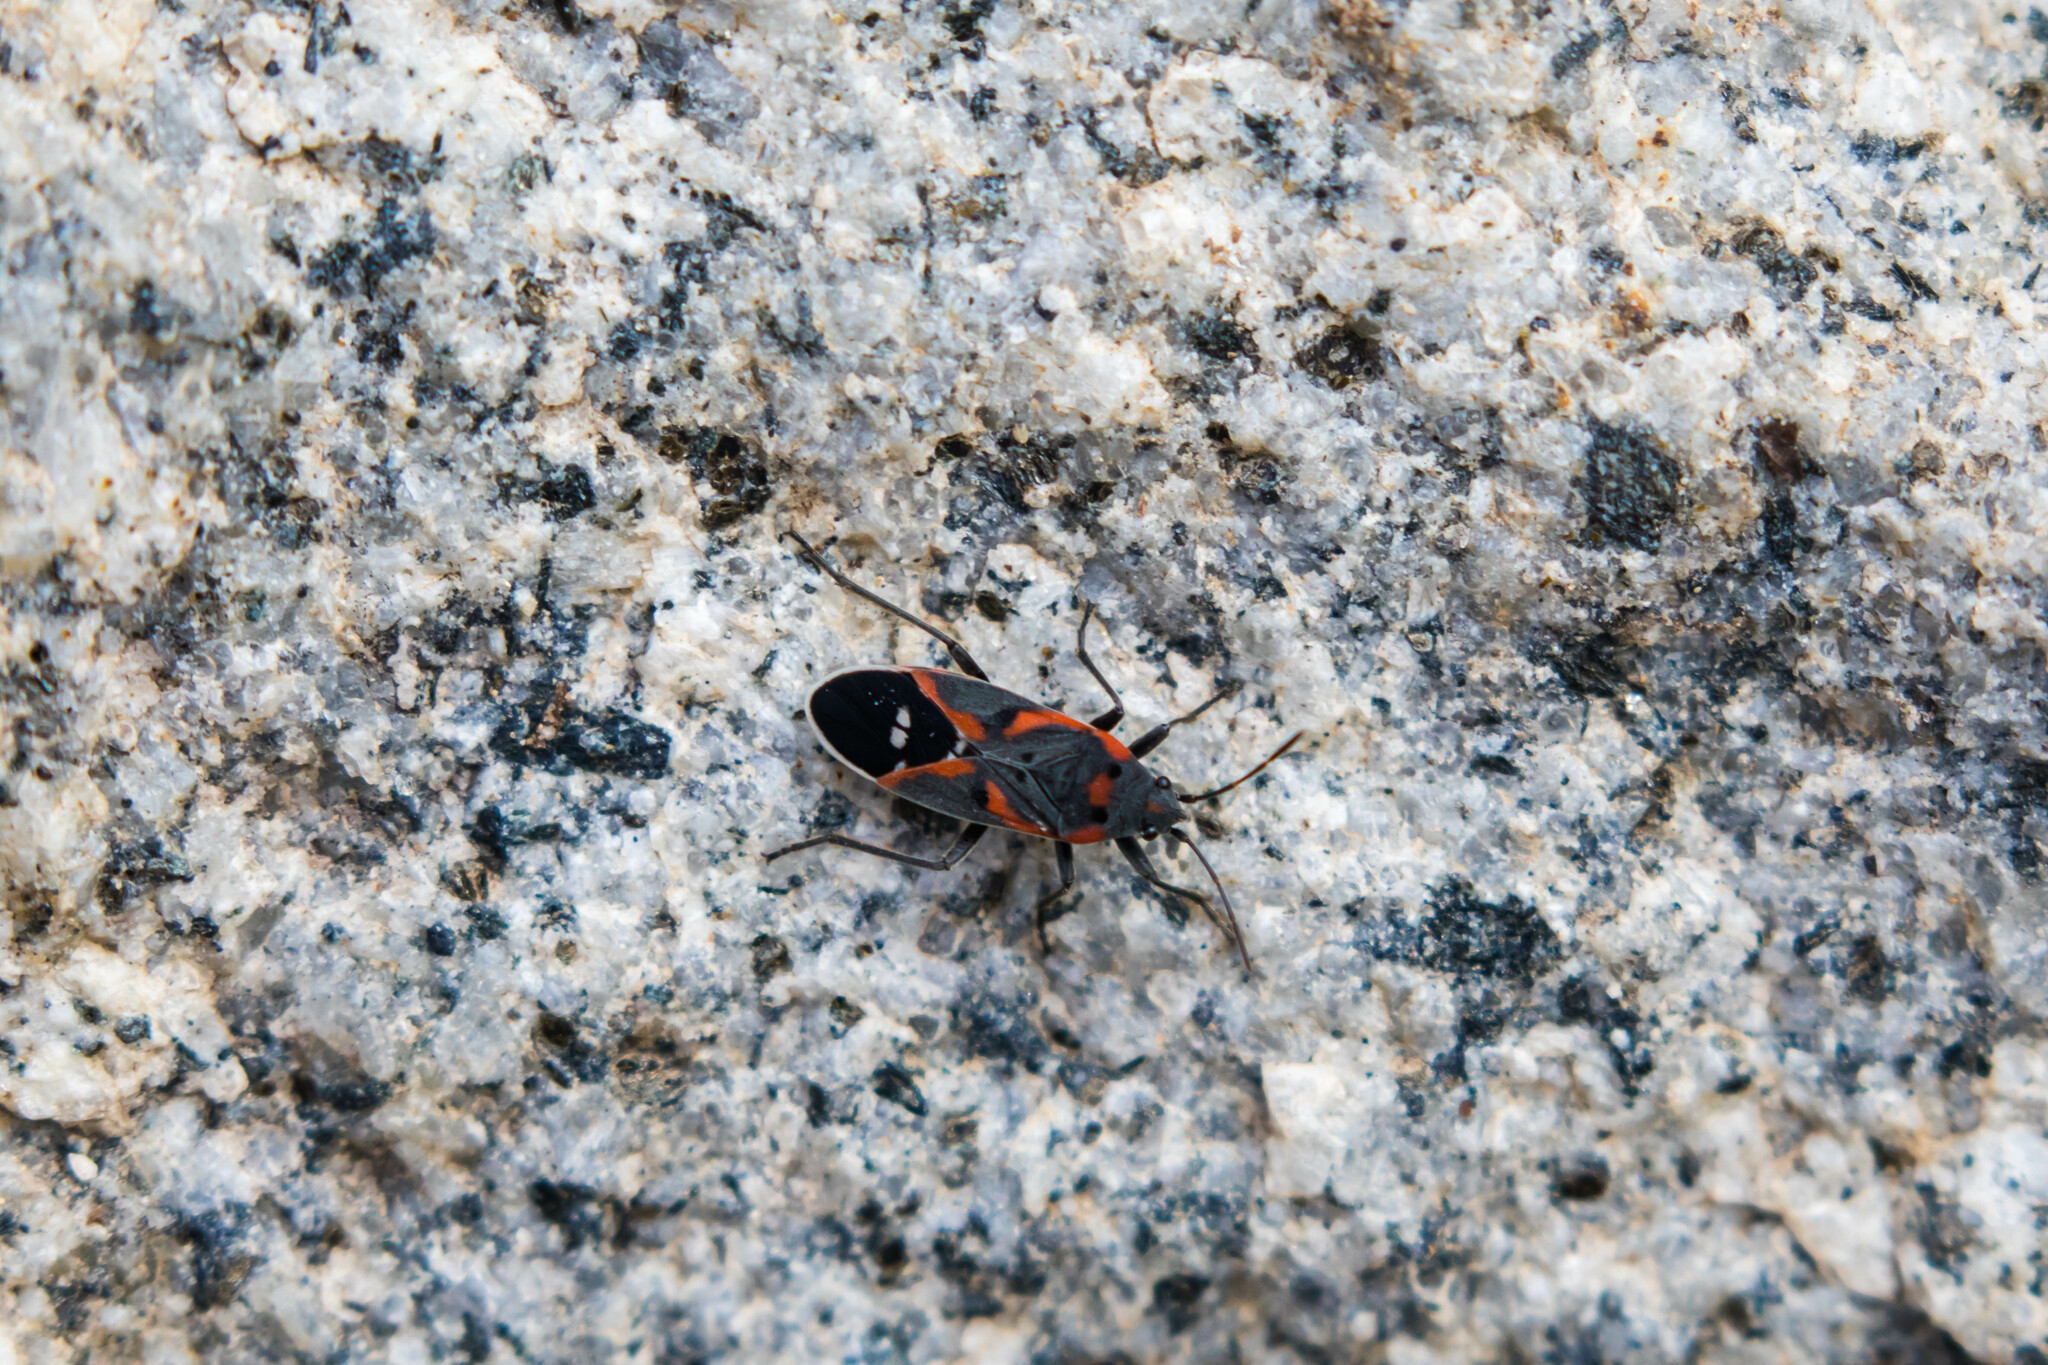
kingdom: Animalia
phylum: Arthropoda
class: Insecta
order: Hemiptera
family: Lygaeidae
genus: Lygaeus
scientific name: Lygaeus kalmii
